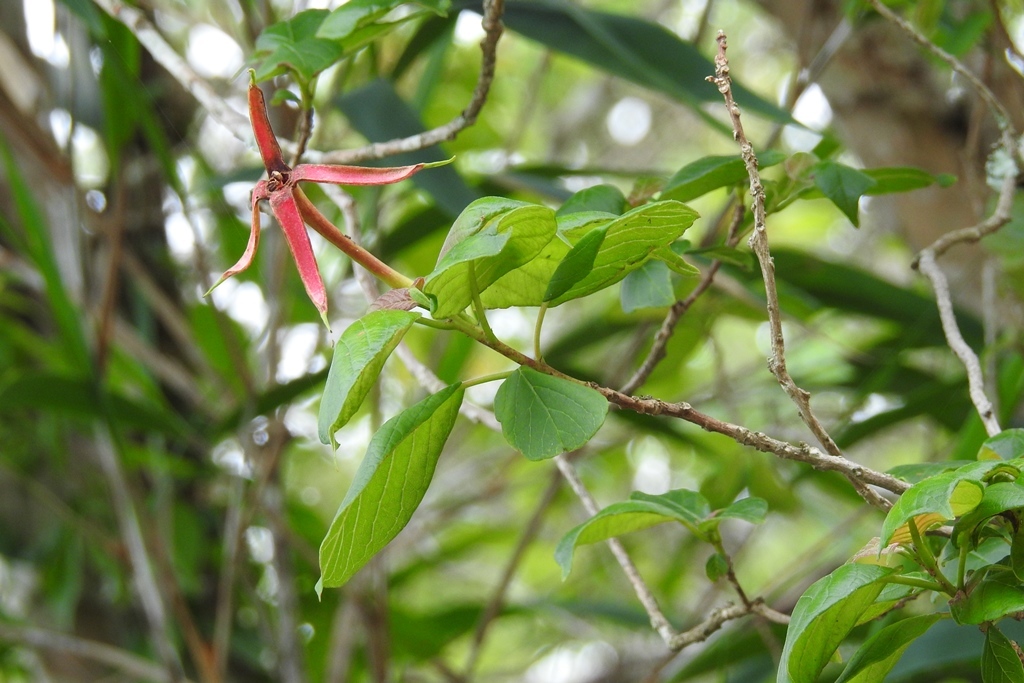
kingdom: Plantae
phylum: Tracheophyta
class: Magnoliopsida
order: Myrtales
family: Onagraceae
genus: Hauya
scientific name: Hauya elegans
